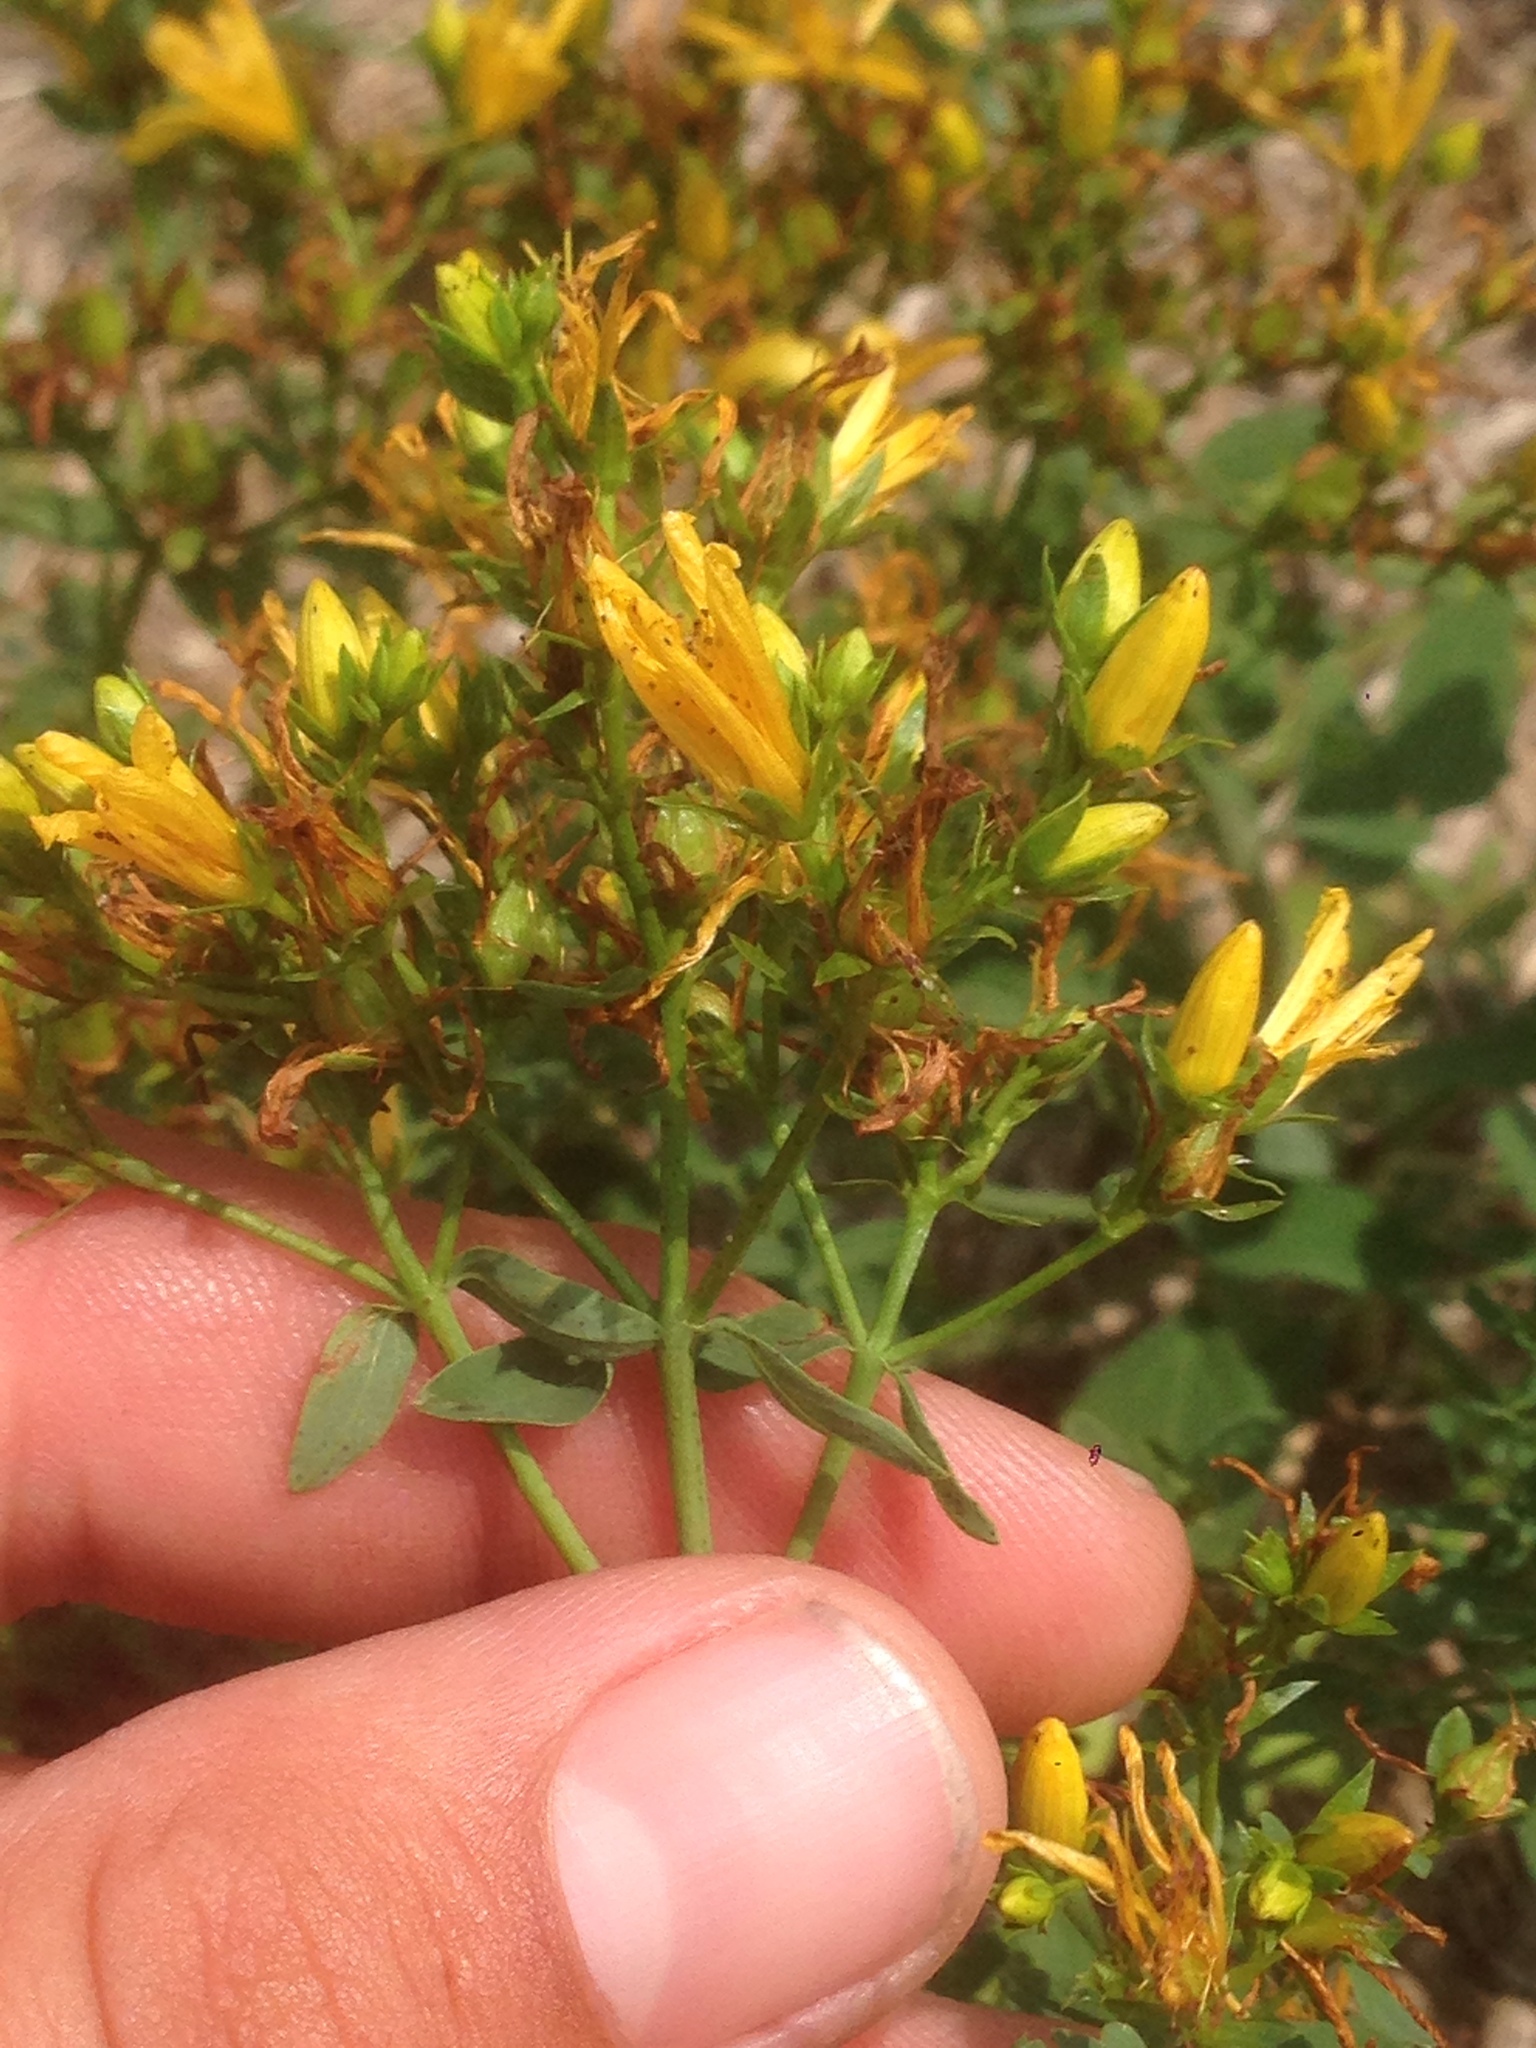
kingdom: Plantae
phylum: Tracheophyta
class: Magnoliopsida
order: Malpighiales
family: Hypericaceae
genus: Hypericum
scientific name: Hypericum perforatum
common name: Common st. johnswort
